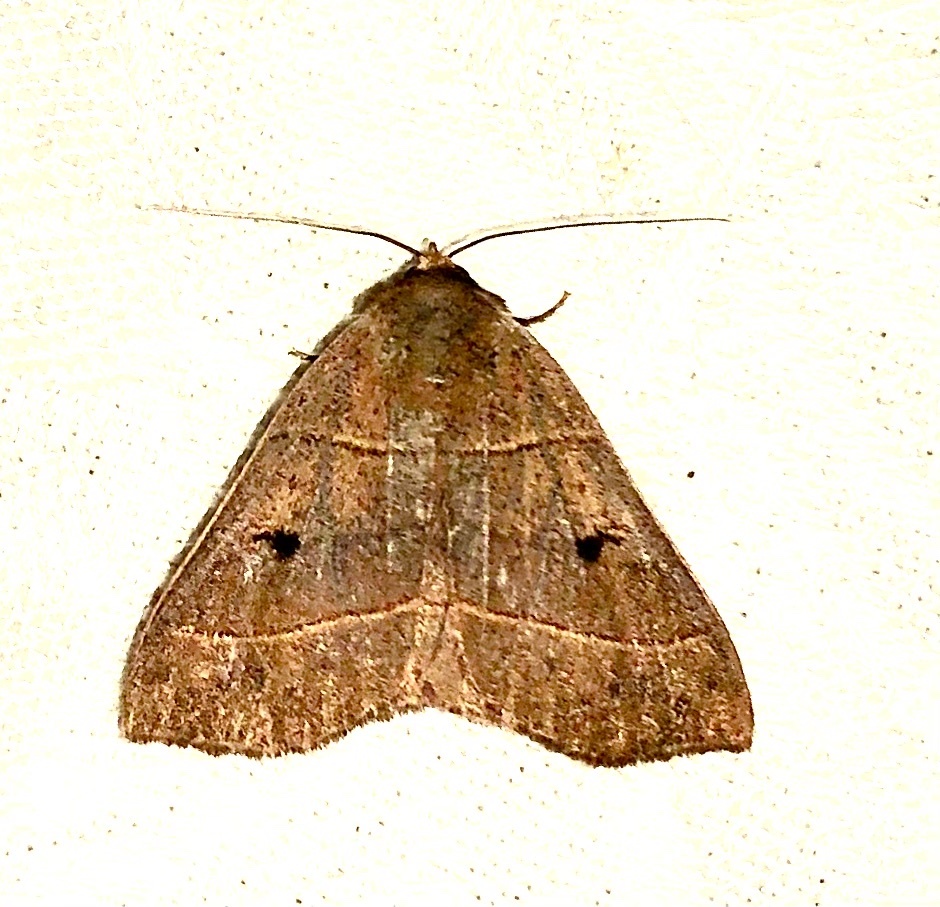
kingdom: Animalia
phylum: Arthropoda
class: Insecta
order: Lepidoptera
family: Erebidae
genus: Panopoda
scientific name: Panopoda rufimargo
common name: Red-lined panopoda moth
